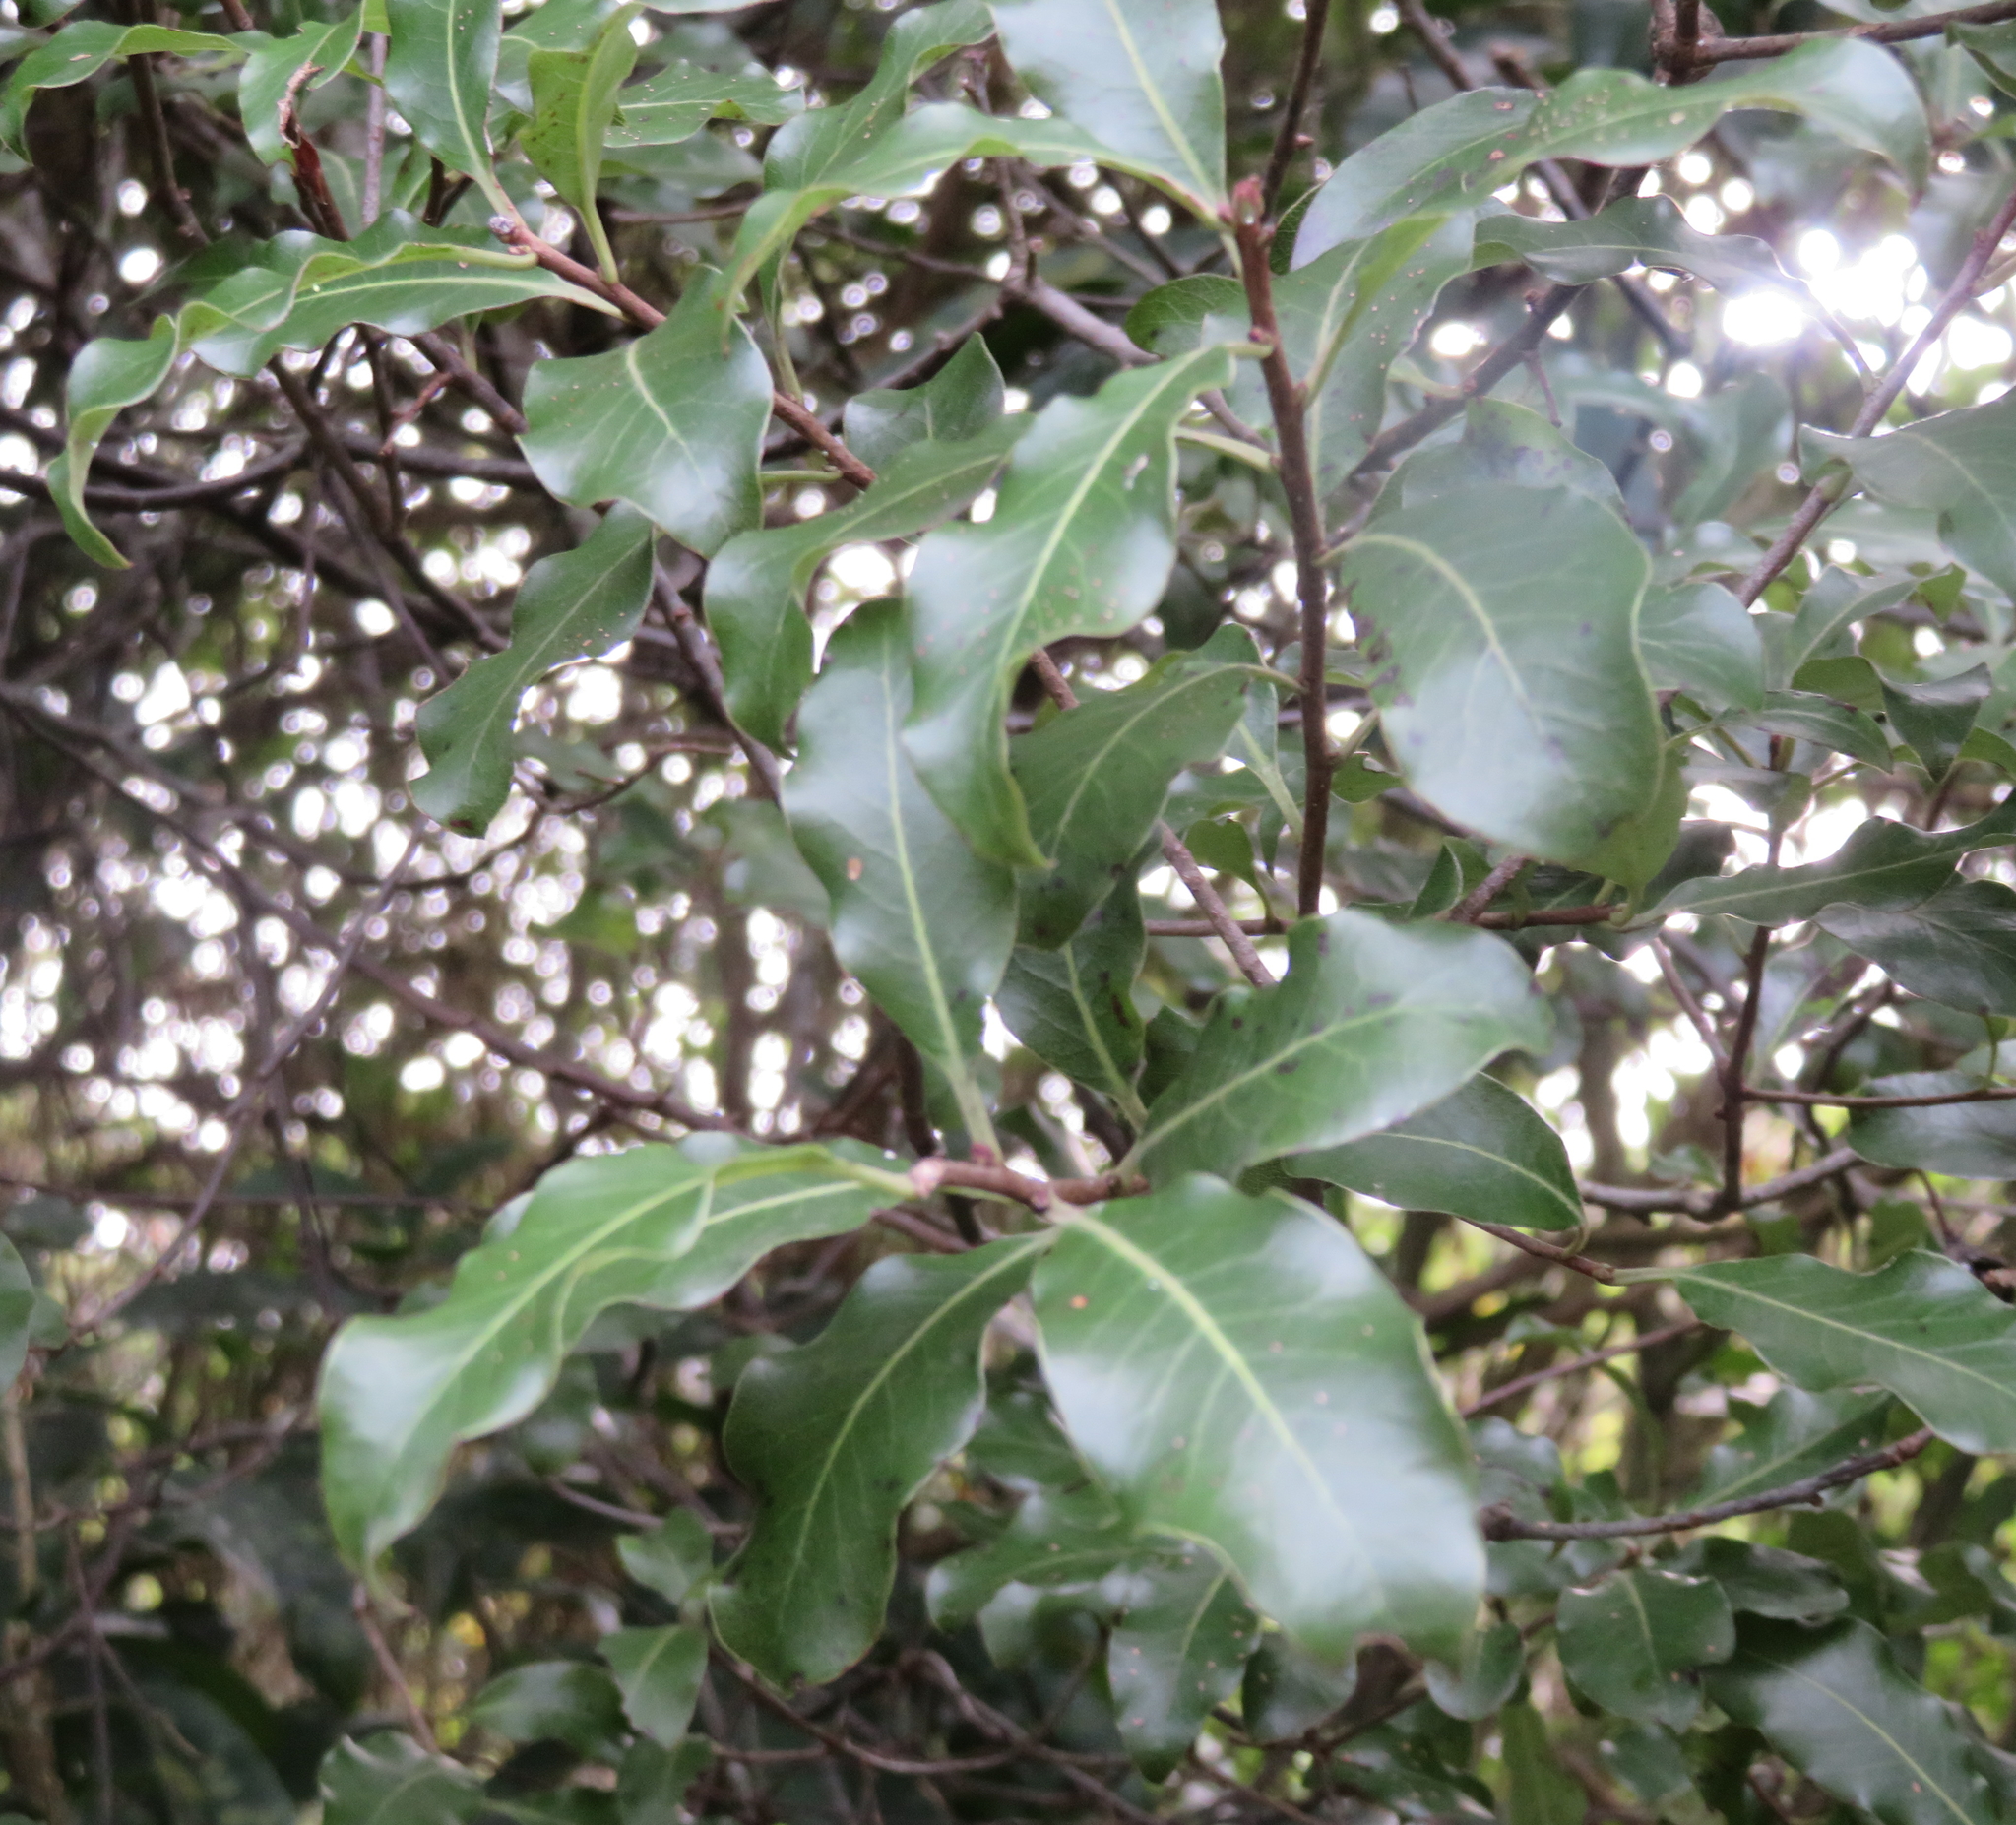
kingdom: Plantae
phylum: Tracheophyta
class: Magnoliopsida
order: Apiales
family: Pittosporaceae
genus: Pittosporum
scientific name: Pittosporum tenuifolium
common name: Kohuhu
